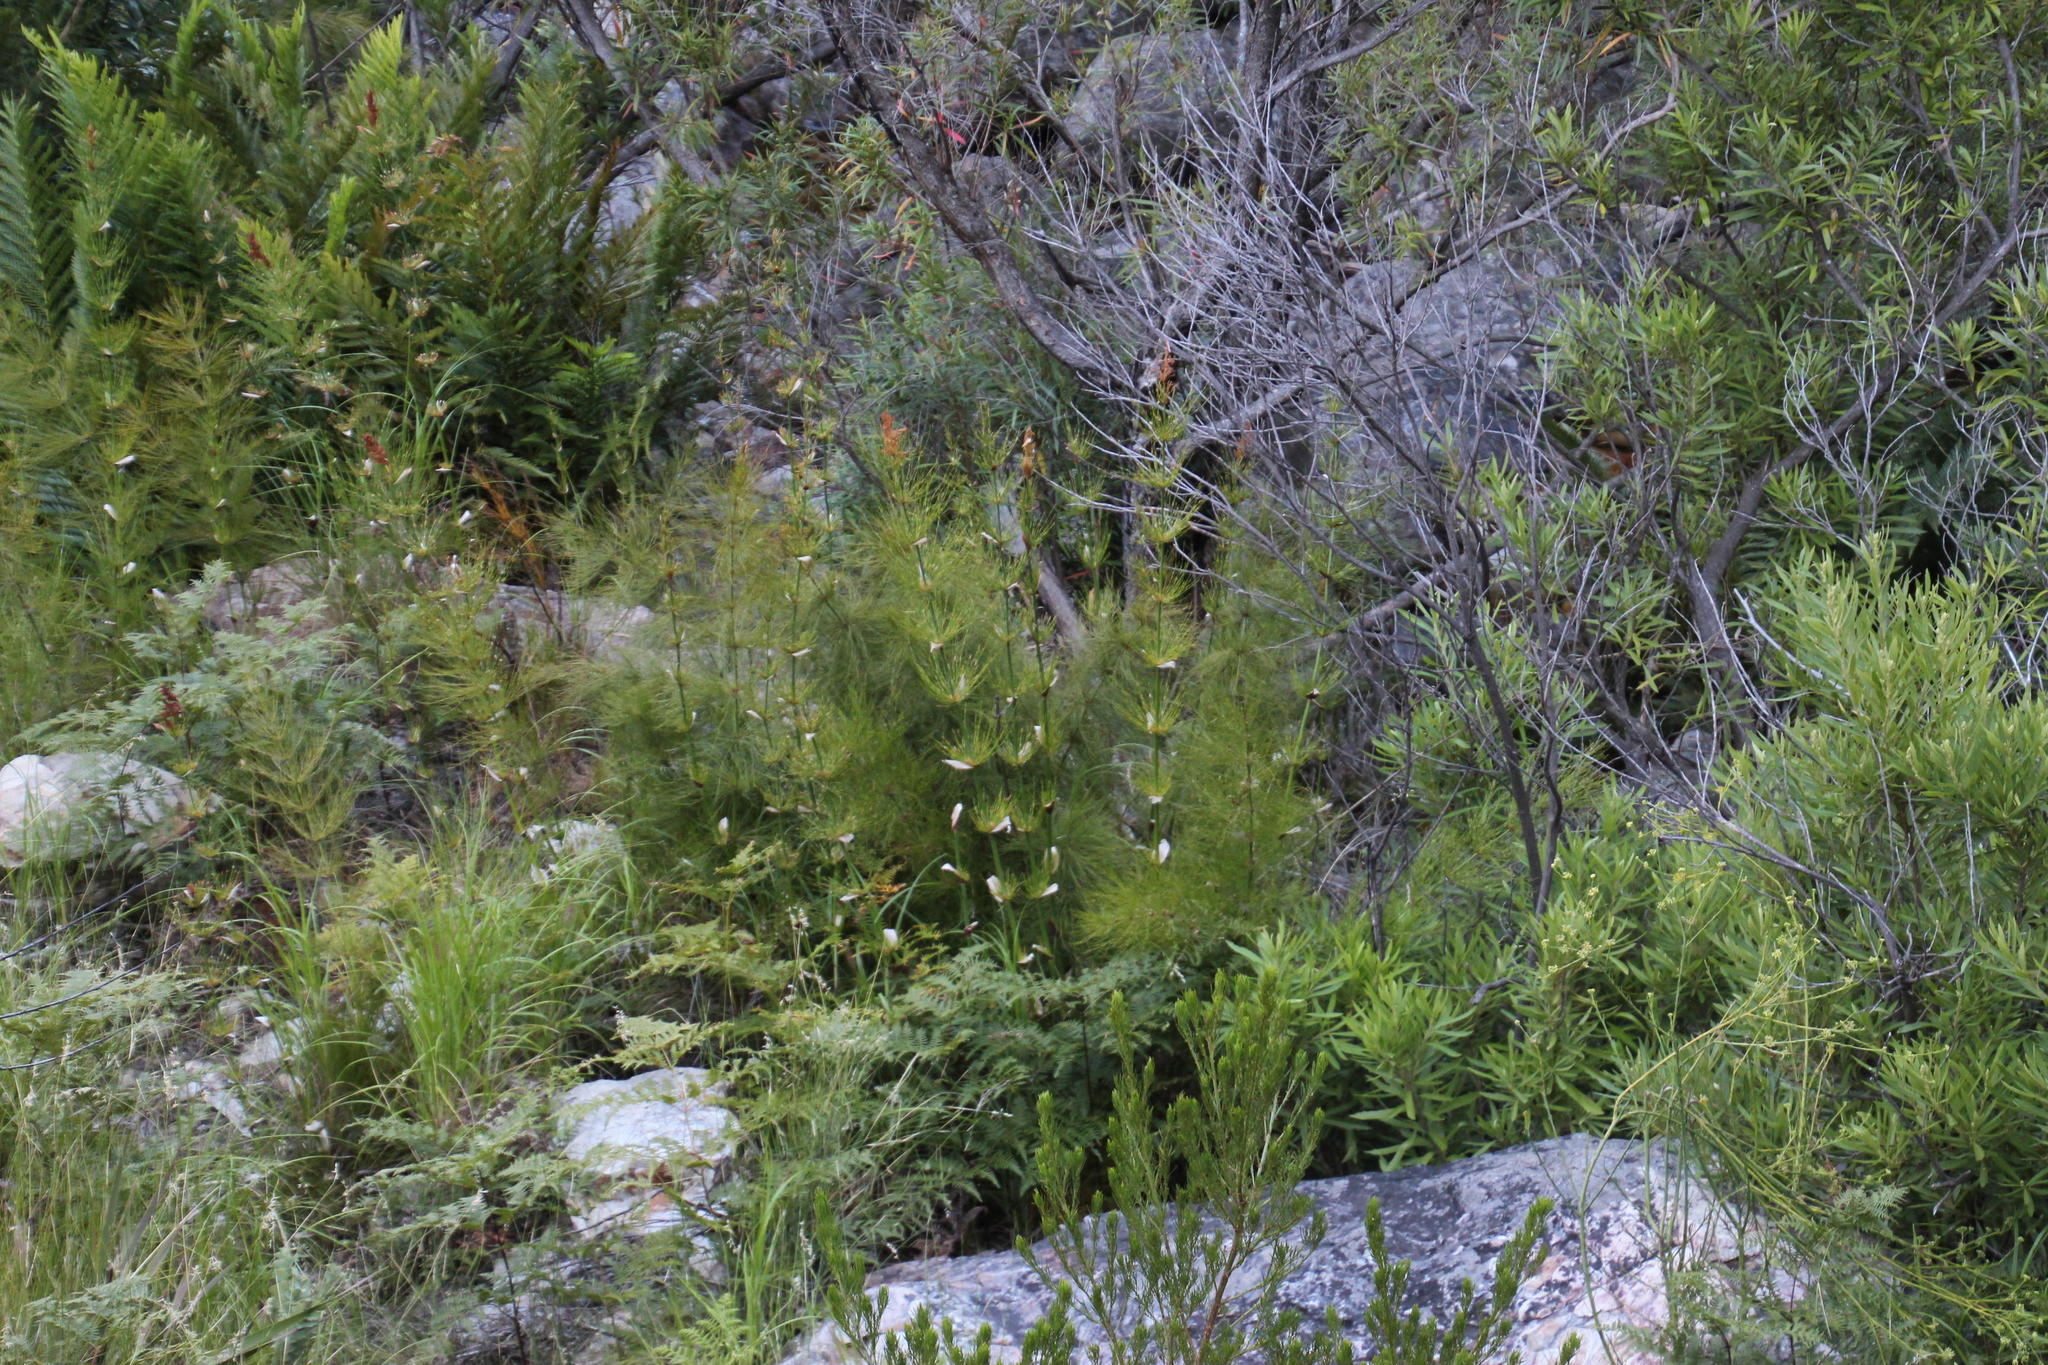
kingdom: Plantae
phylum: Tracheophyta
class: Liliopsida
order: Poales
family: Restionaceae
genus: Elegia
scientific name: Elegia capensis
